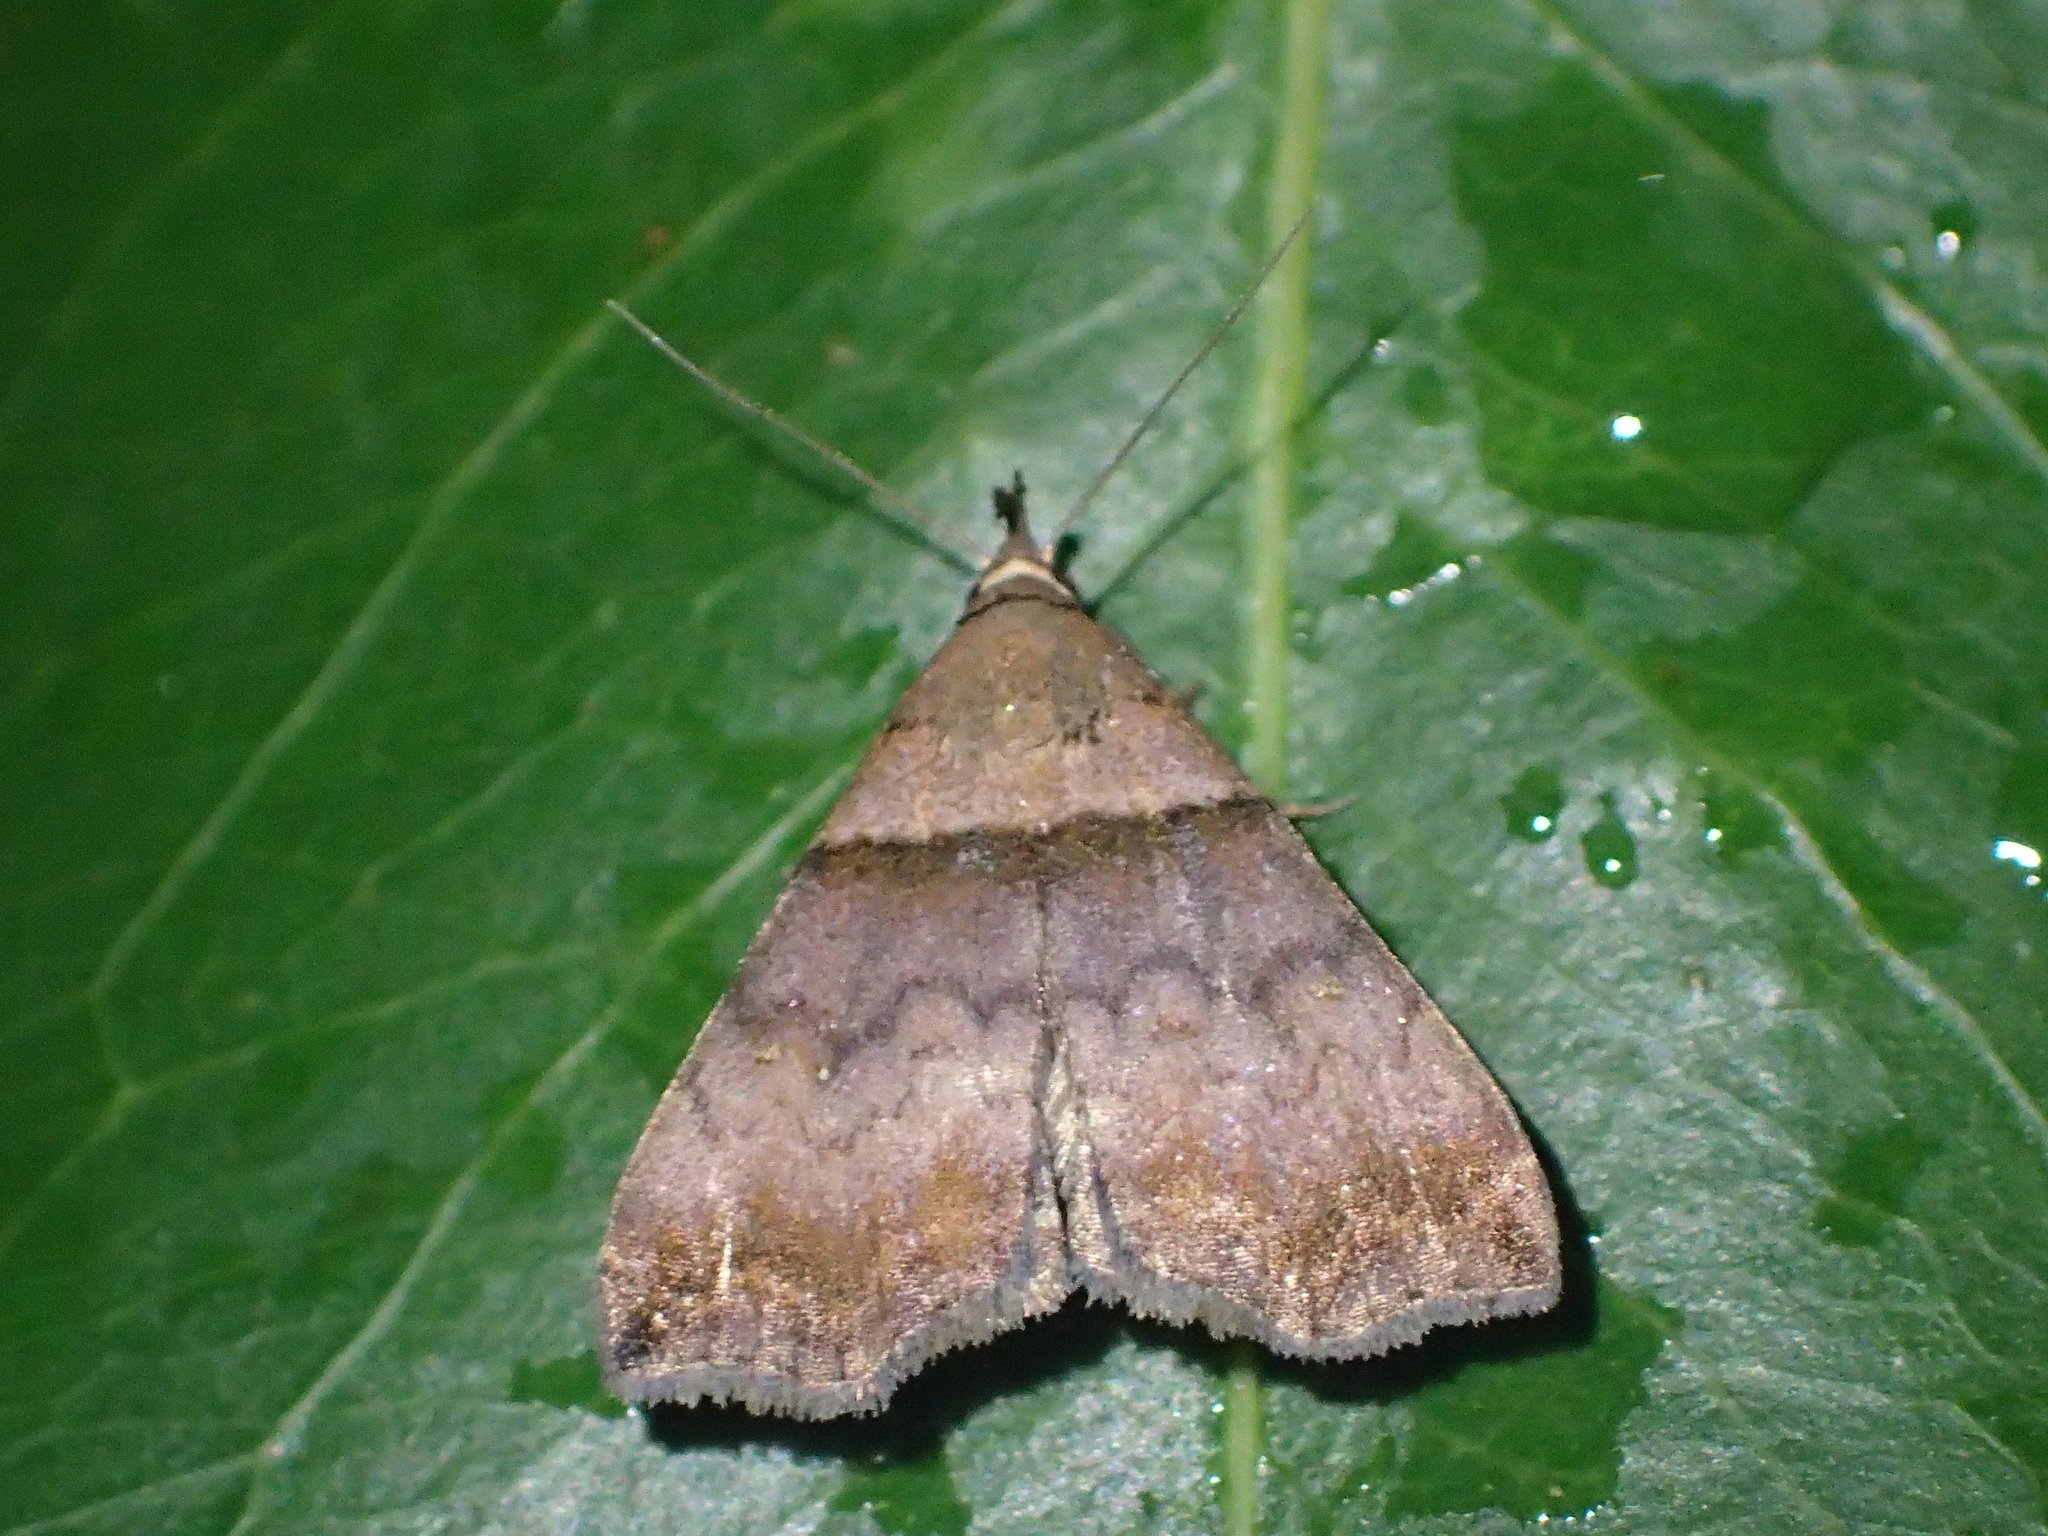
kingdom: Animalia
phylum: Arthropoda
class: Insecta
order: Lepidoptera
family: Erebidae
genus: Lascoria
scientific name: Lascoria ambigualis
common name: Ambiguous moth
